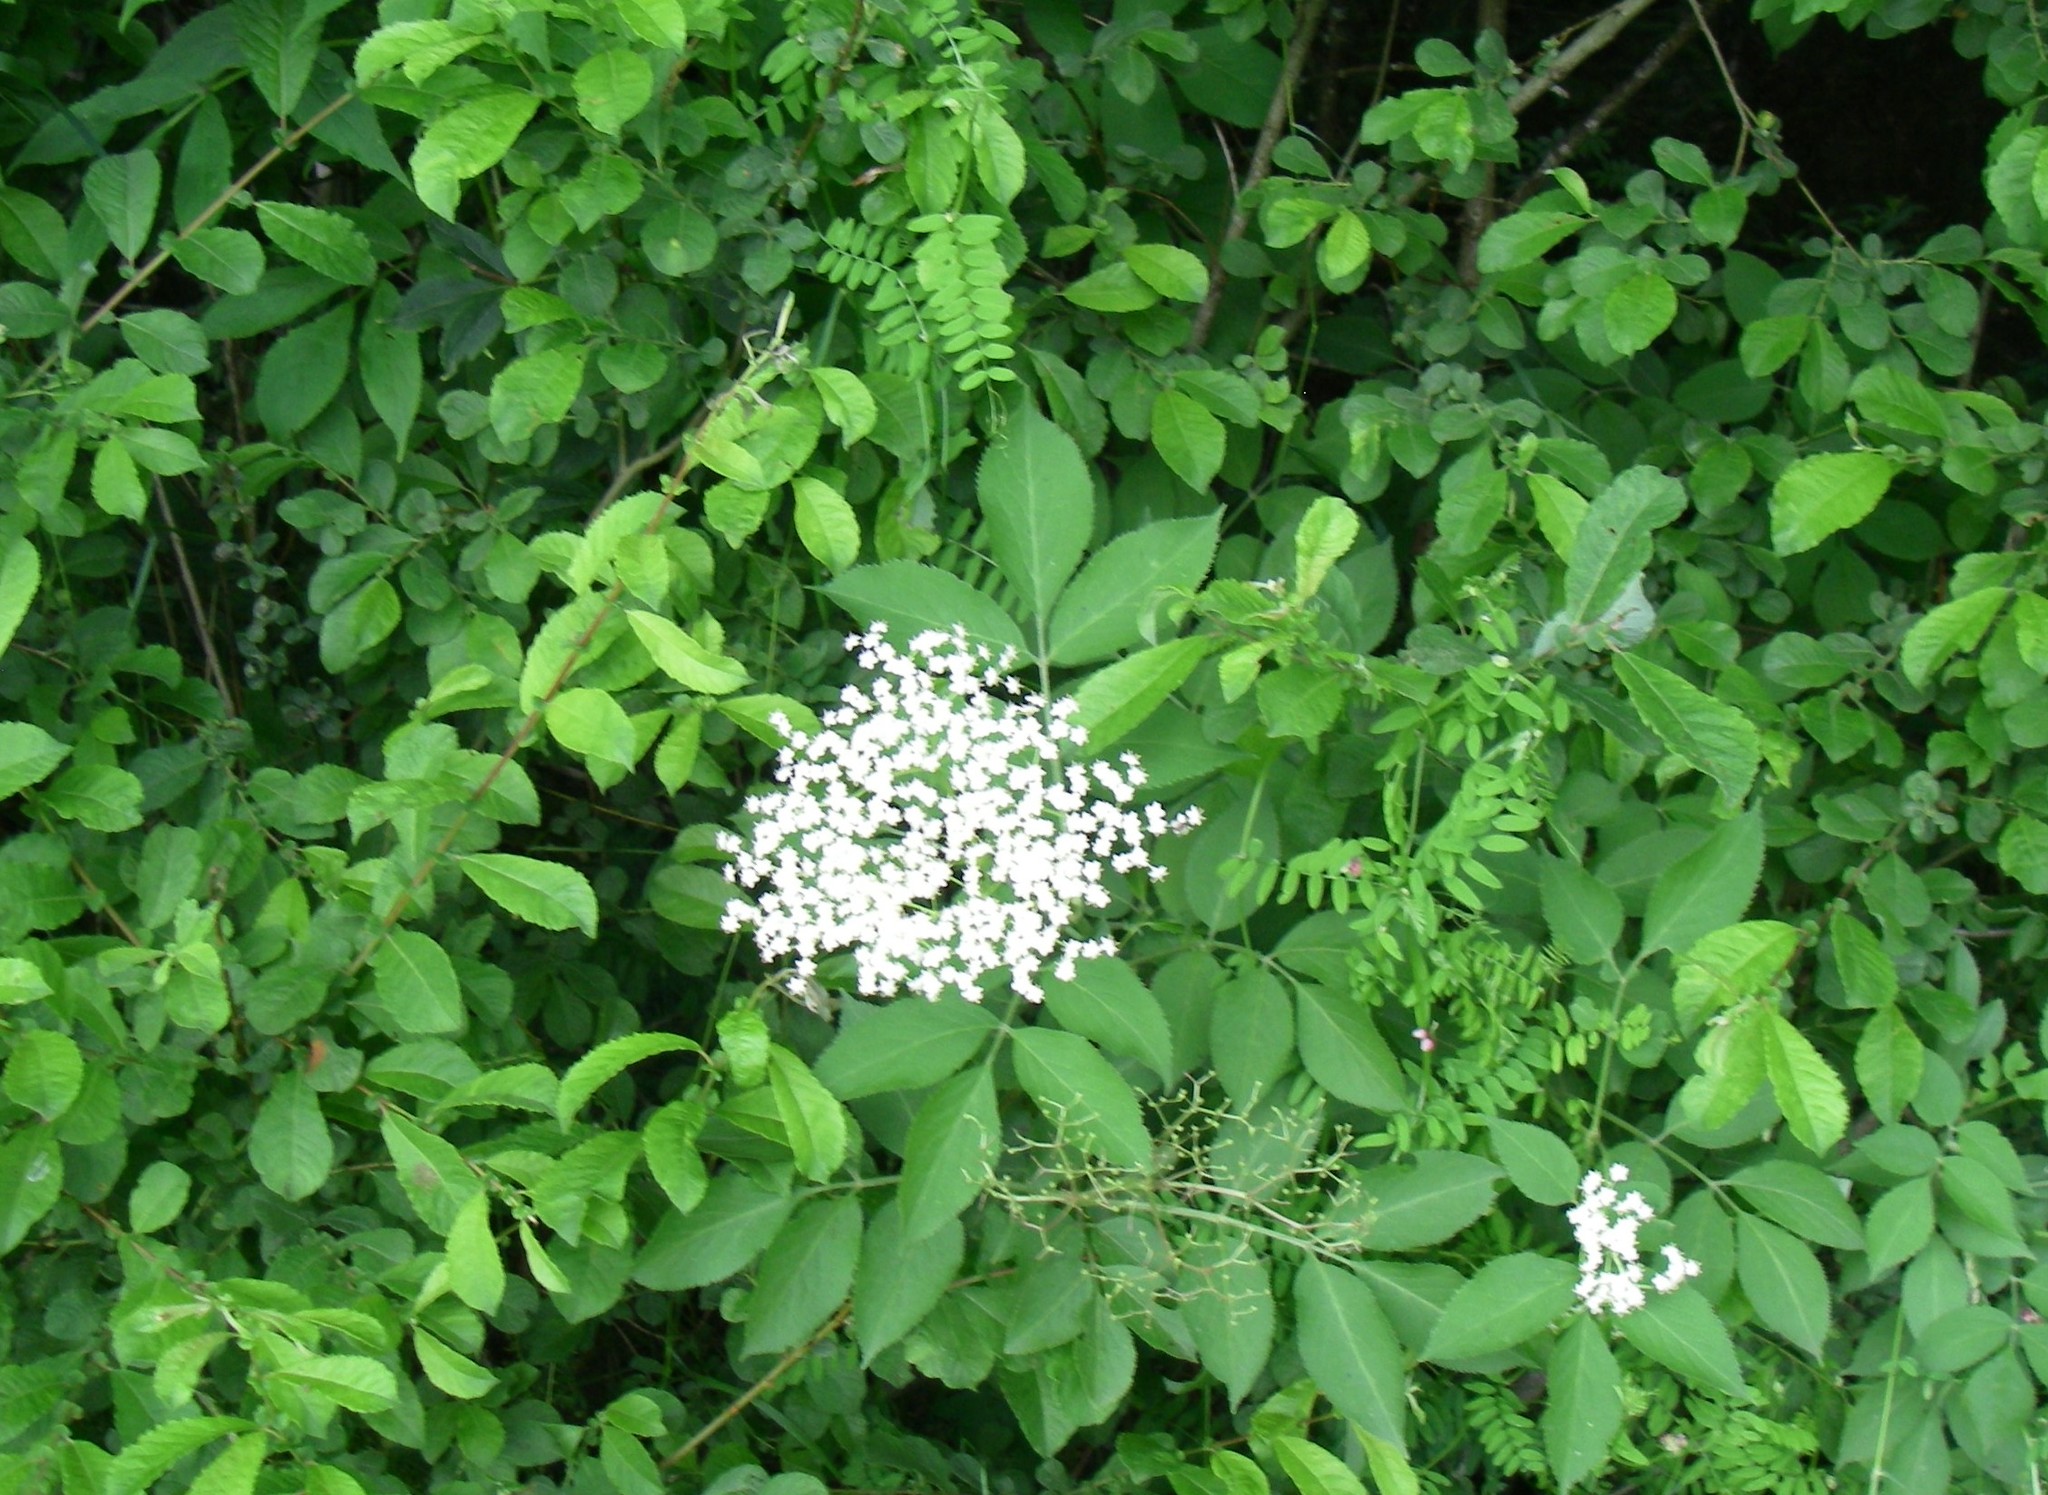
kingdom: Plantae
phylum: Tracheophyta
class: Magnoliopsida
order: Dipsacales
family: Viburnaceae
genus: Sambucus
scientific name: Sambucus nigra
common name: Elder
